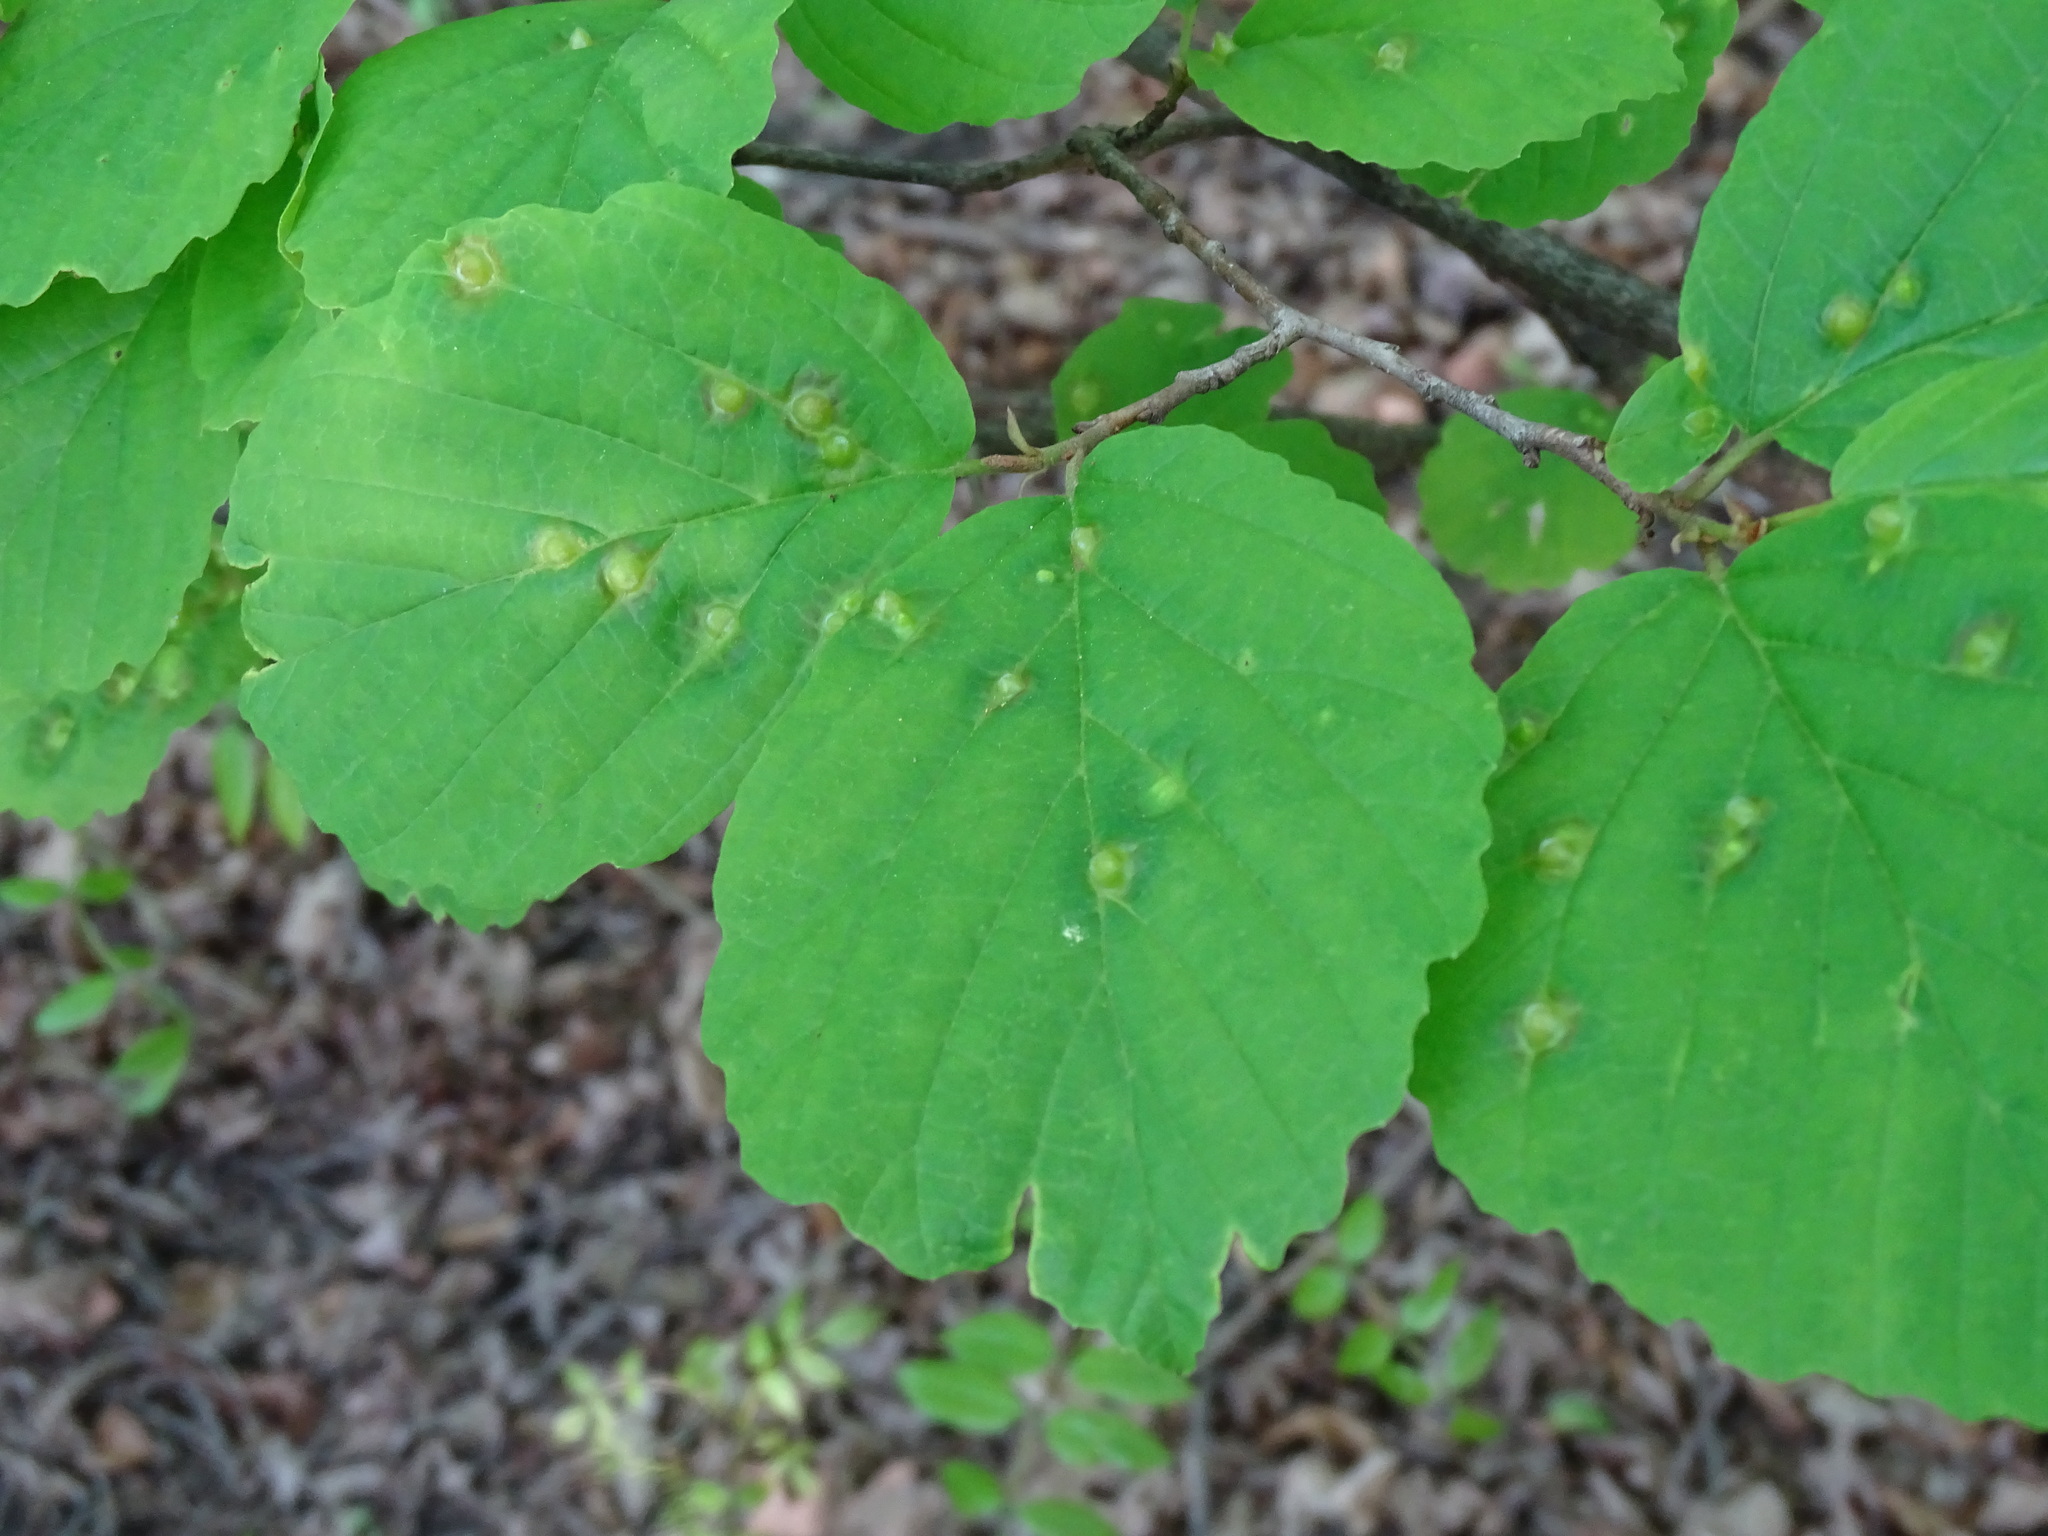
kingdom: Animalia
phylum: Arthropoda
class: Insecta
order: Hemiptera
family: Aphididae
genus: Hormaphis
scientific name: Hormaphis hamamelidis
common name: Witch-hazel cone gall aphid
